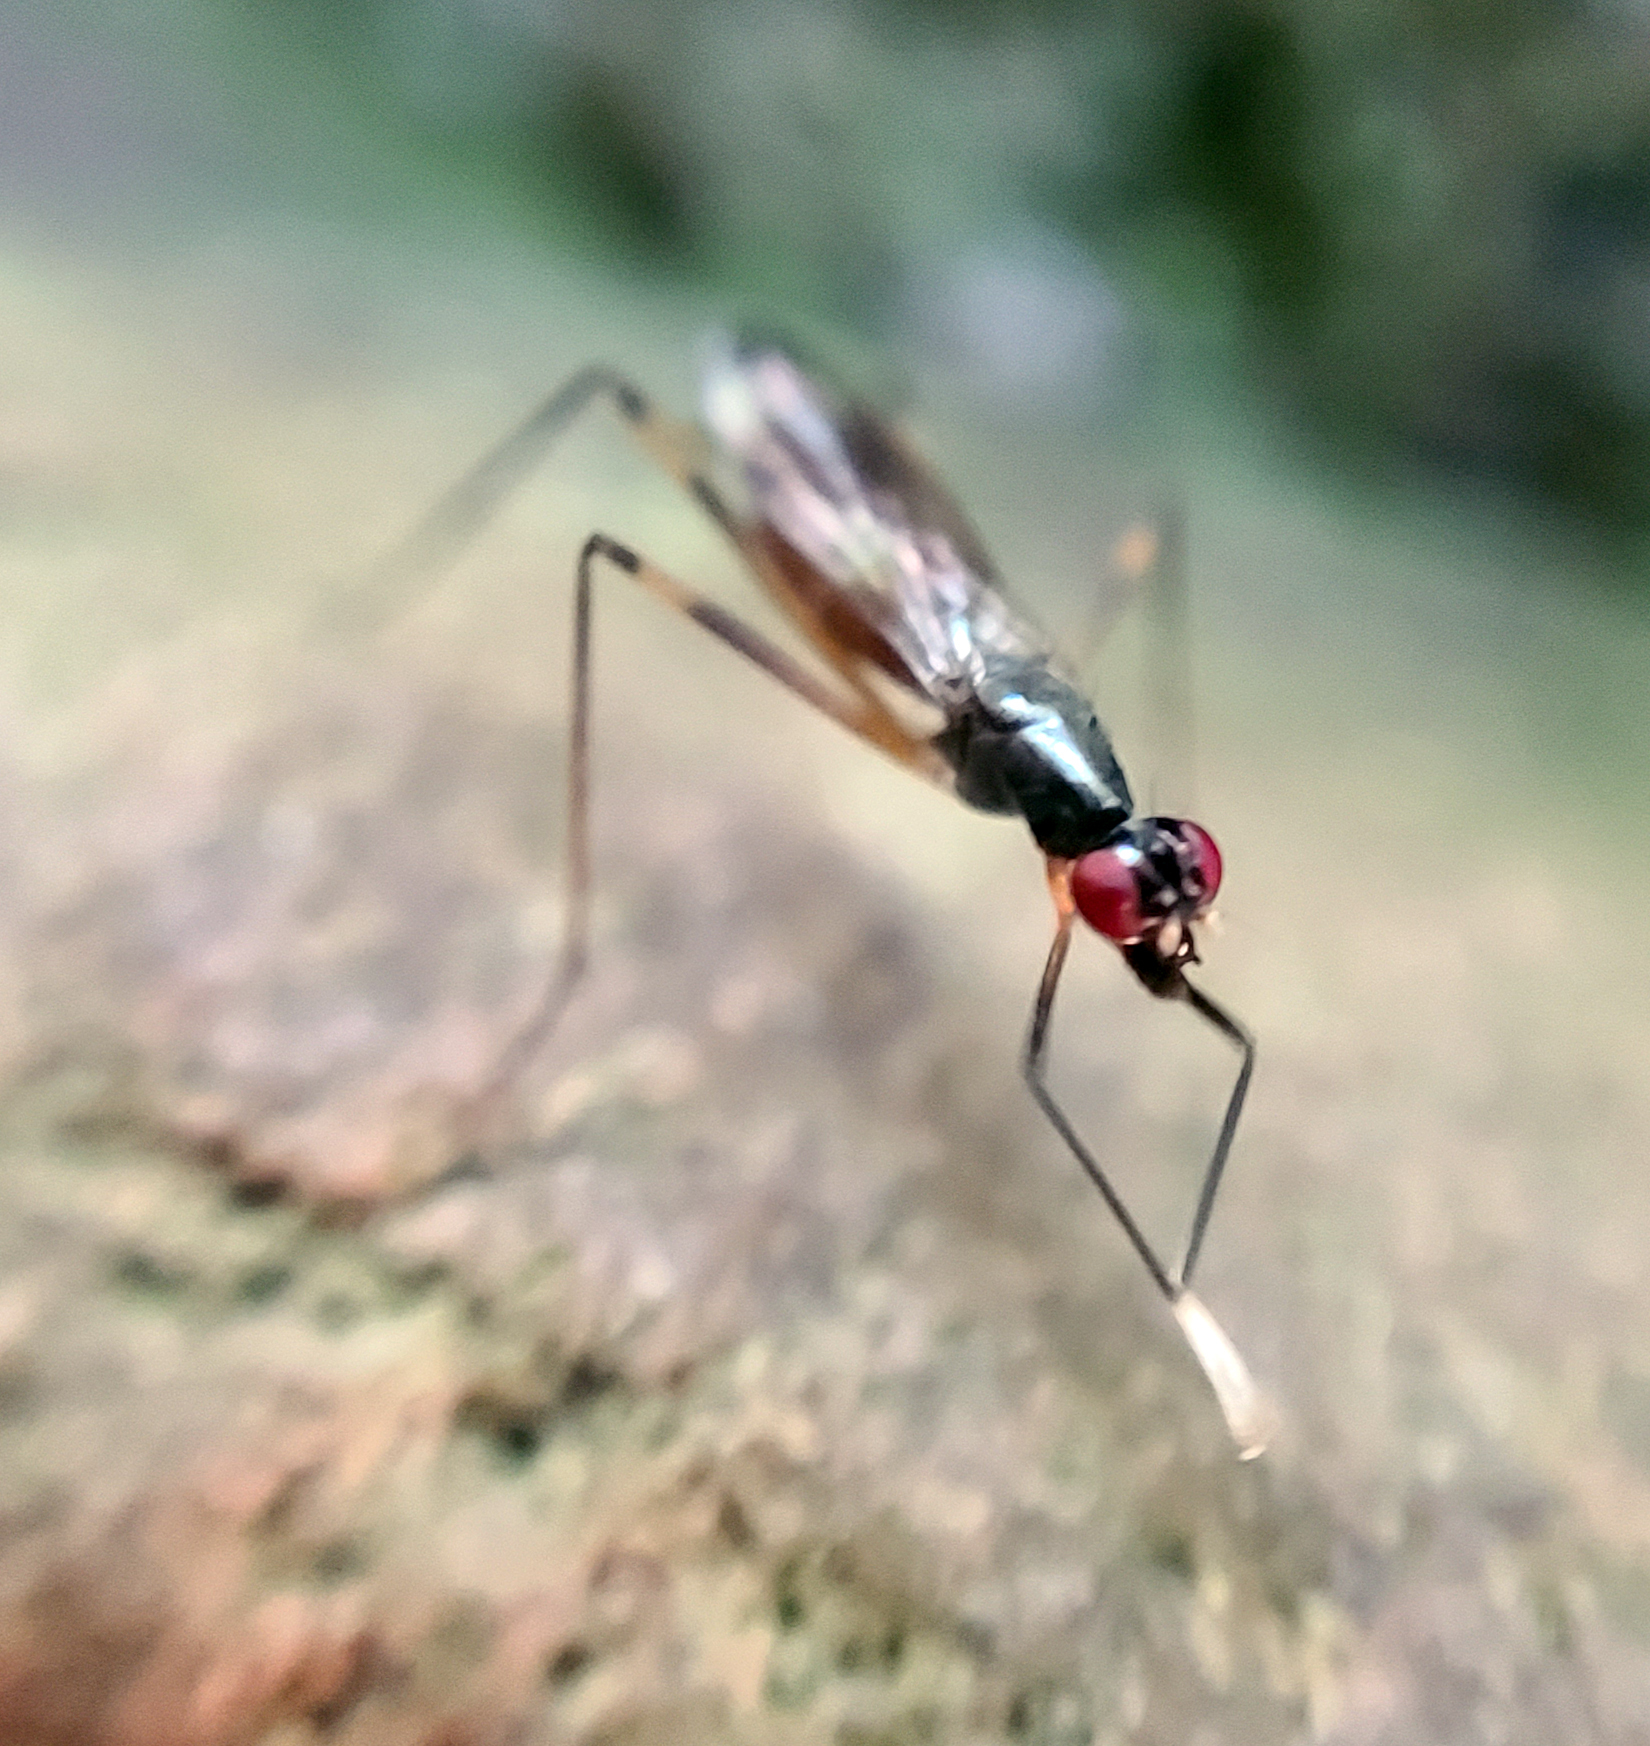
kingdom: Animalia
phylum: Arthropoda
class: Insecta
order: Diptera
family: Micropezidae
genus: Rainieria
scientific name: Rainieria antennaepes
